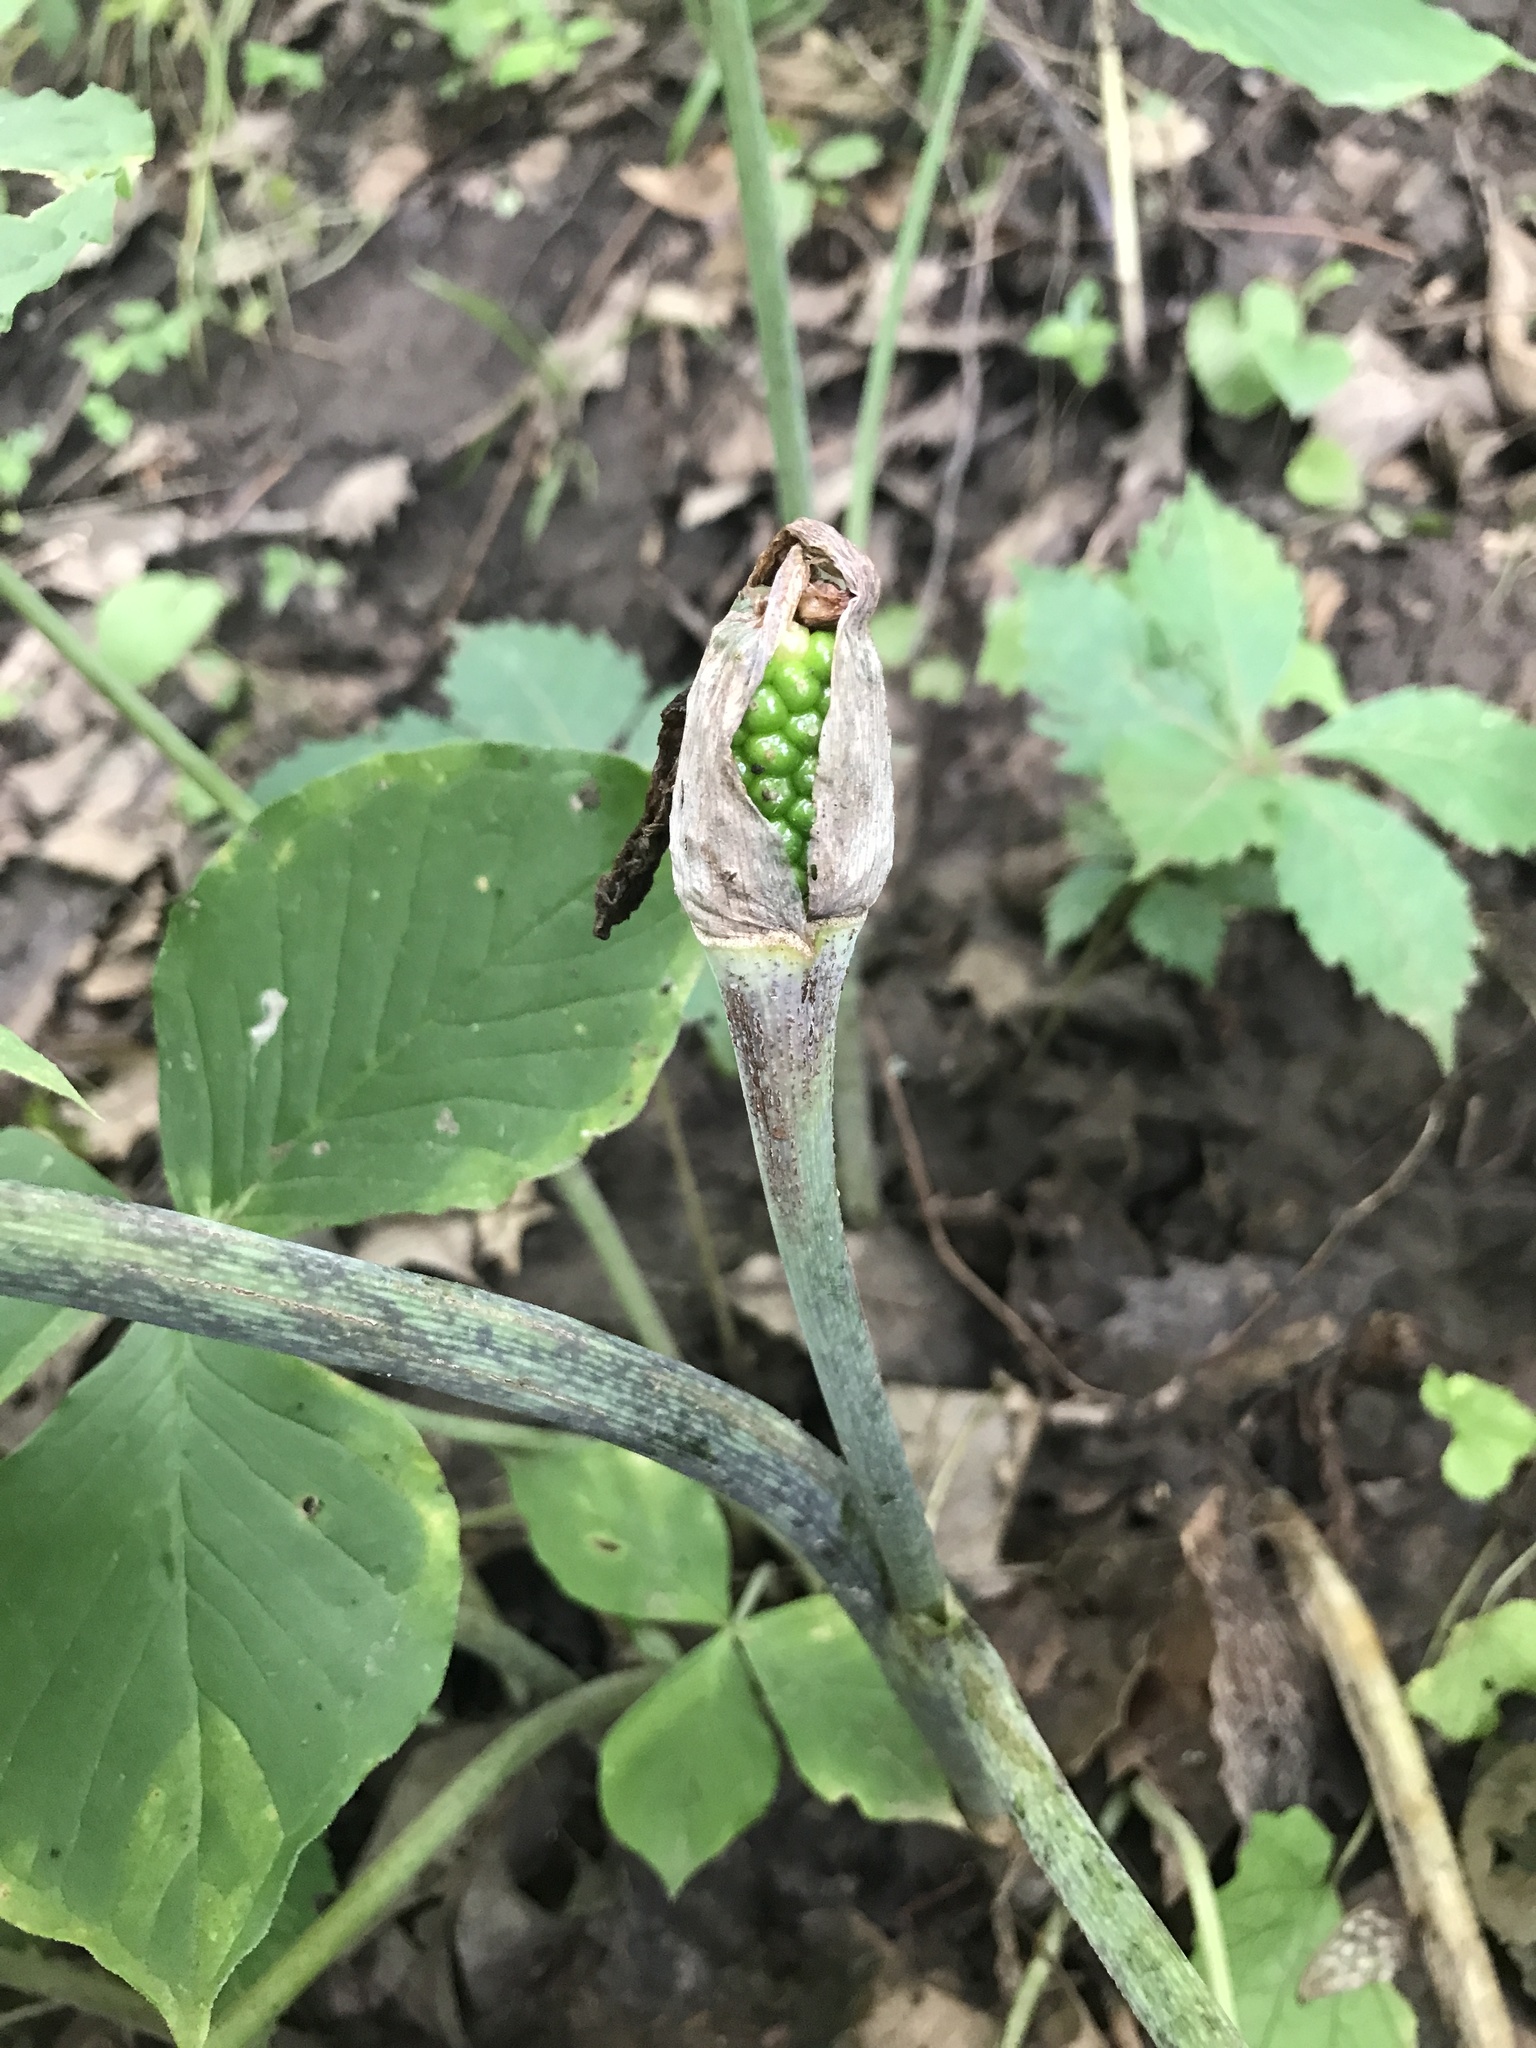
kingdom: Plantae
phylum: Tracheophyta
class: Liliopsida
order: Alismatales
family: Araceae
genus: Arisaema
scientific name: Arisaema triphyllum
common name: Jack-in-the-pulpit
